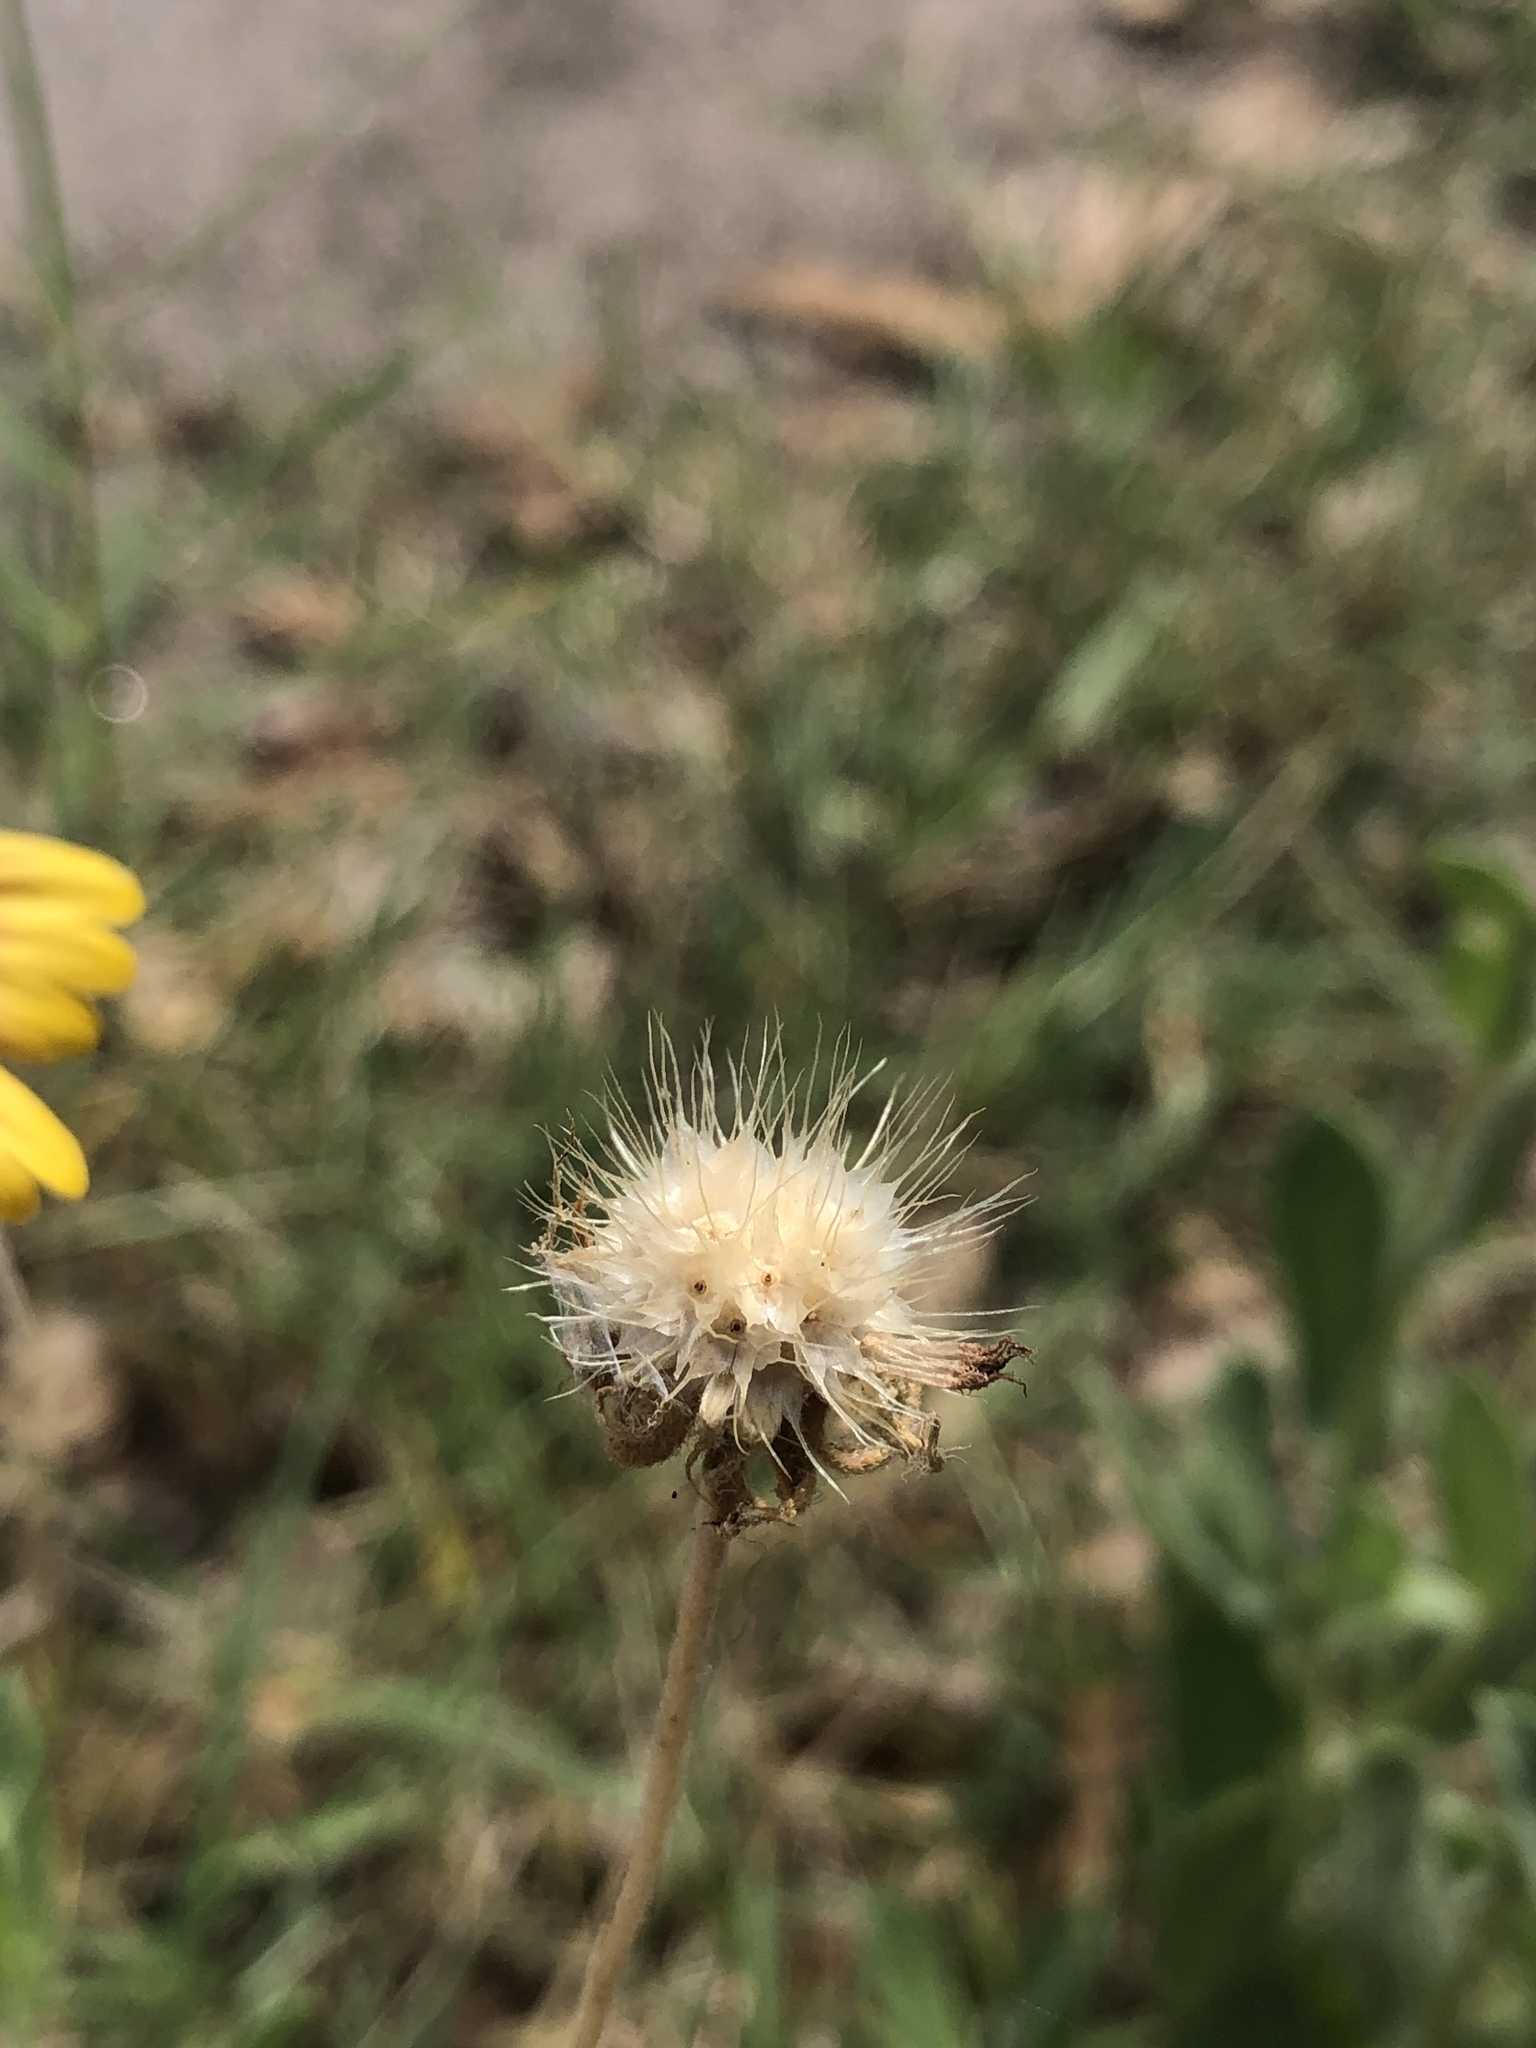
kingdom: Plantae
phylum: Tracheophyta
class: Magnoliopsida
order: Asterales
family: Asteraceae
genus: Gaillardia
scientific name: Gaillardia pulchella
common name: Firewheel
